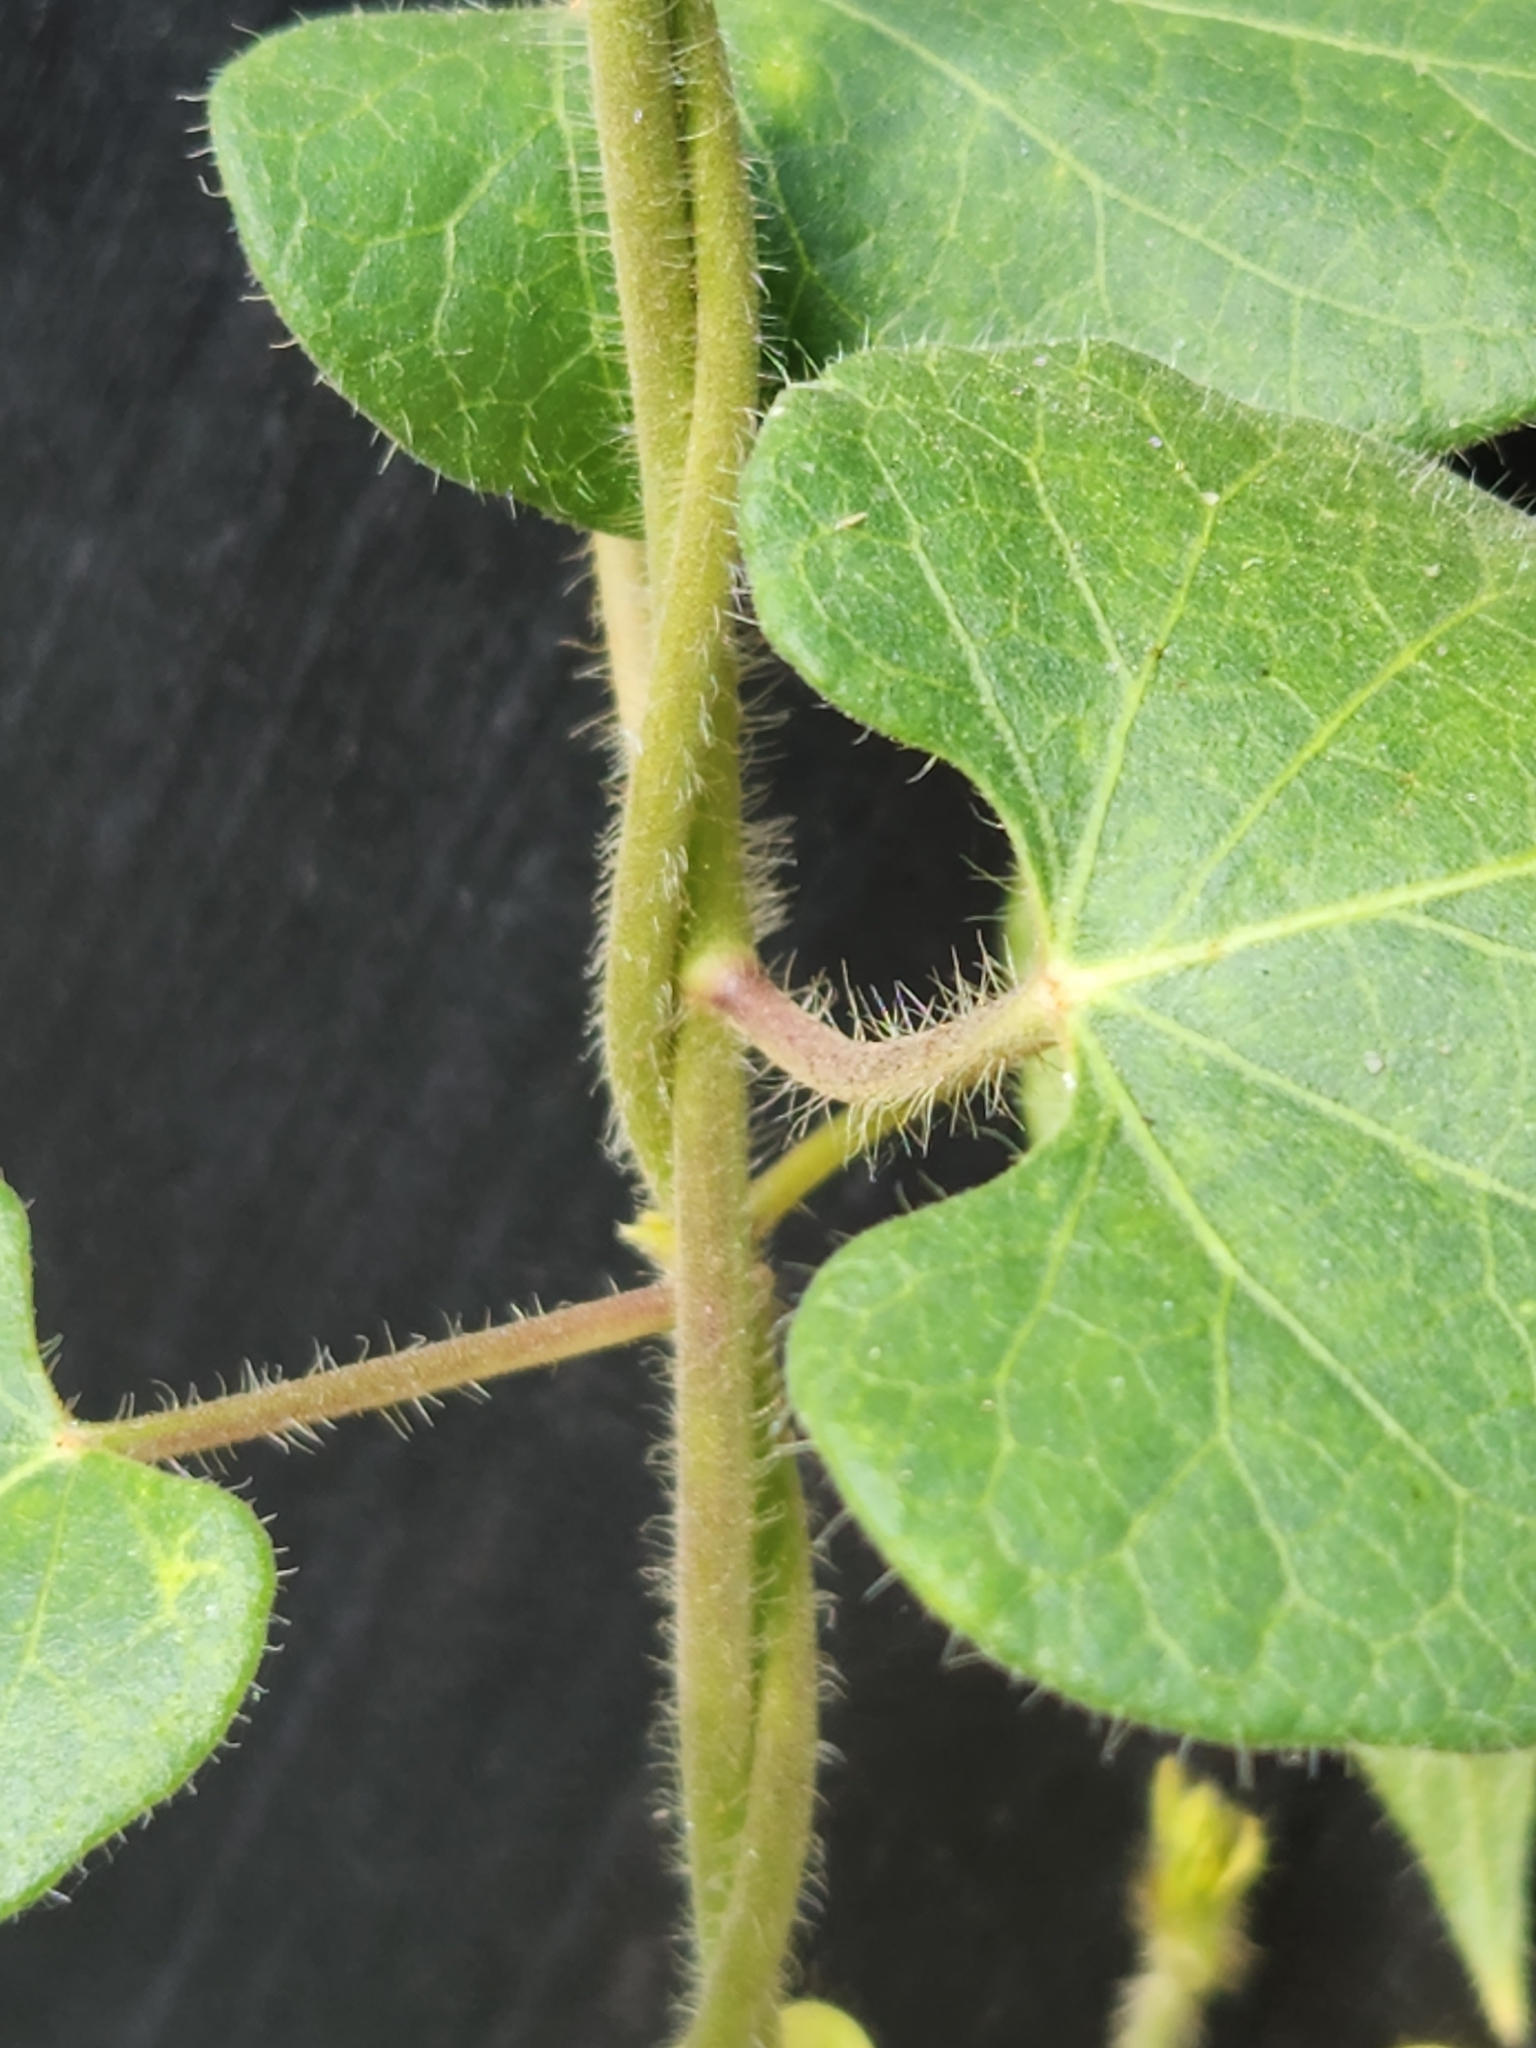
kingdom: Plantae
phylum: Tracheophyta
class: Magnoliopsida
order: Gentianales
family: Apocynaceae
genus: Dictyanthus
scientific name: Dictyanthus reticulatus
